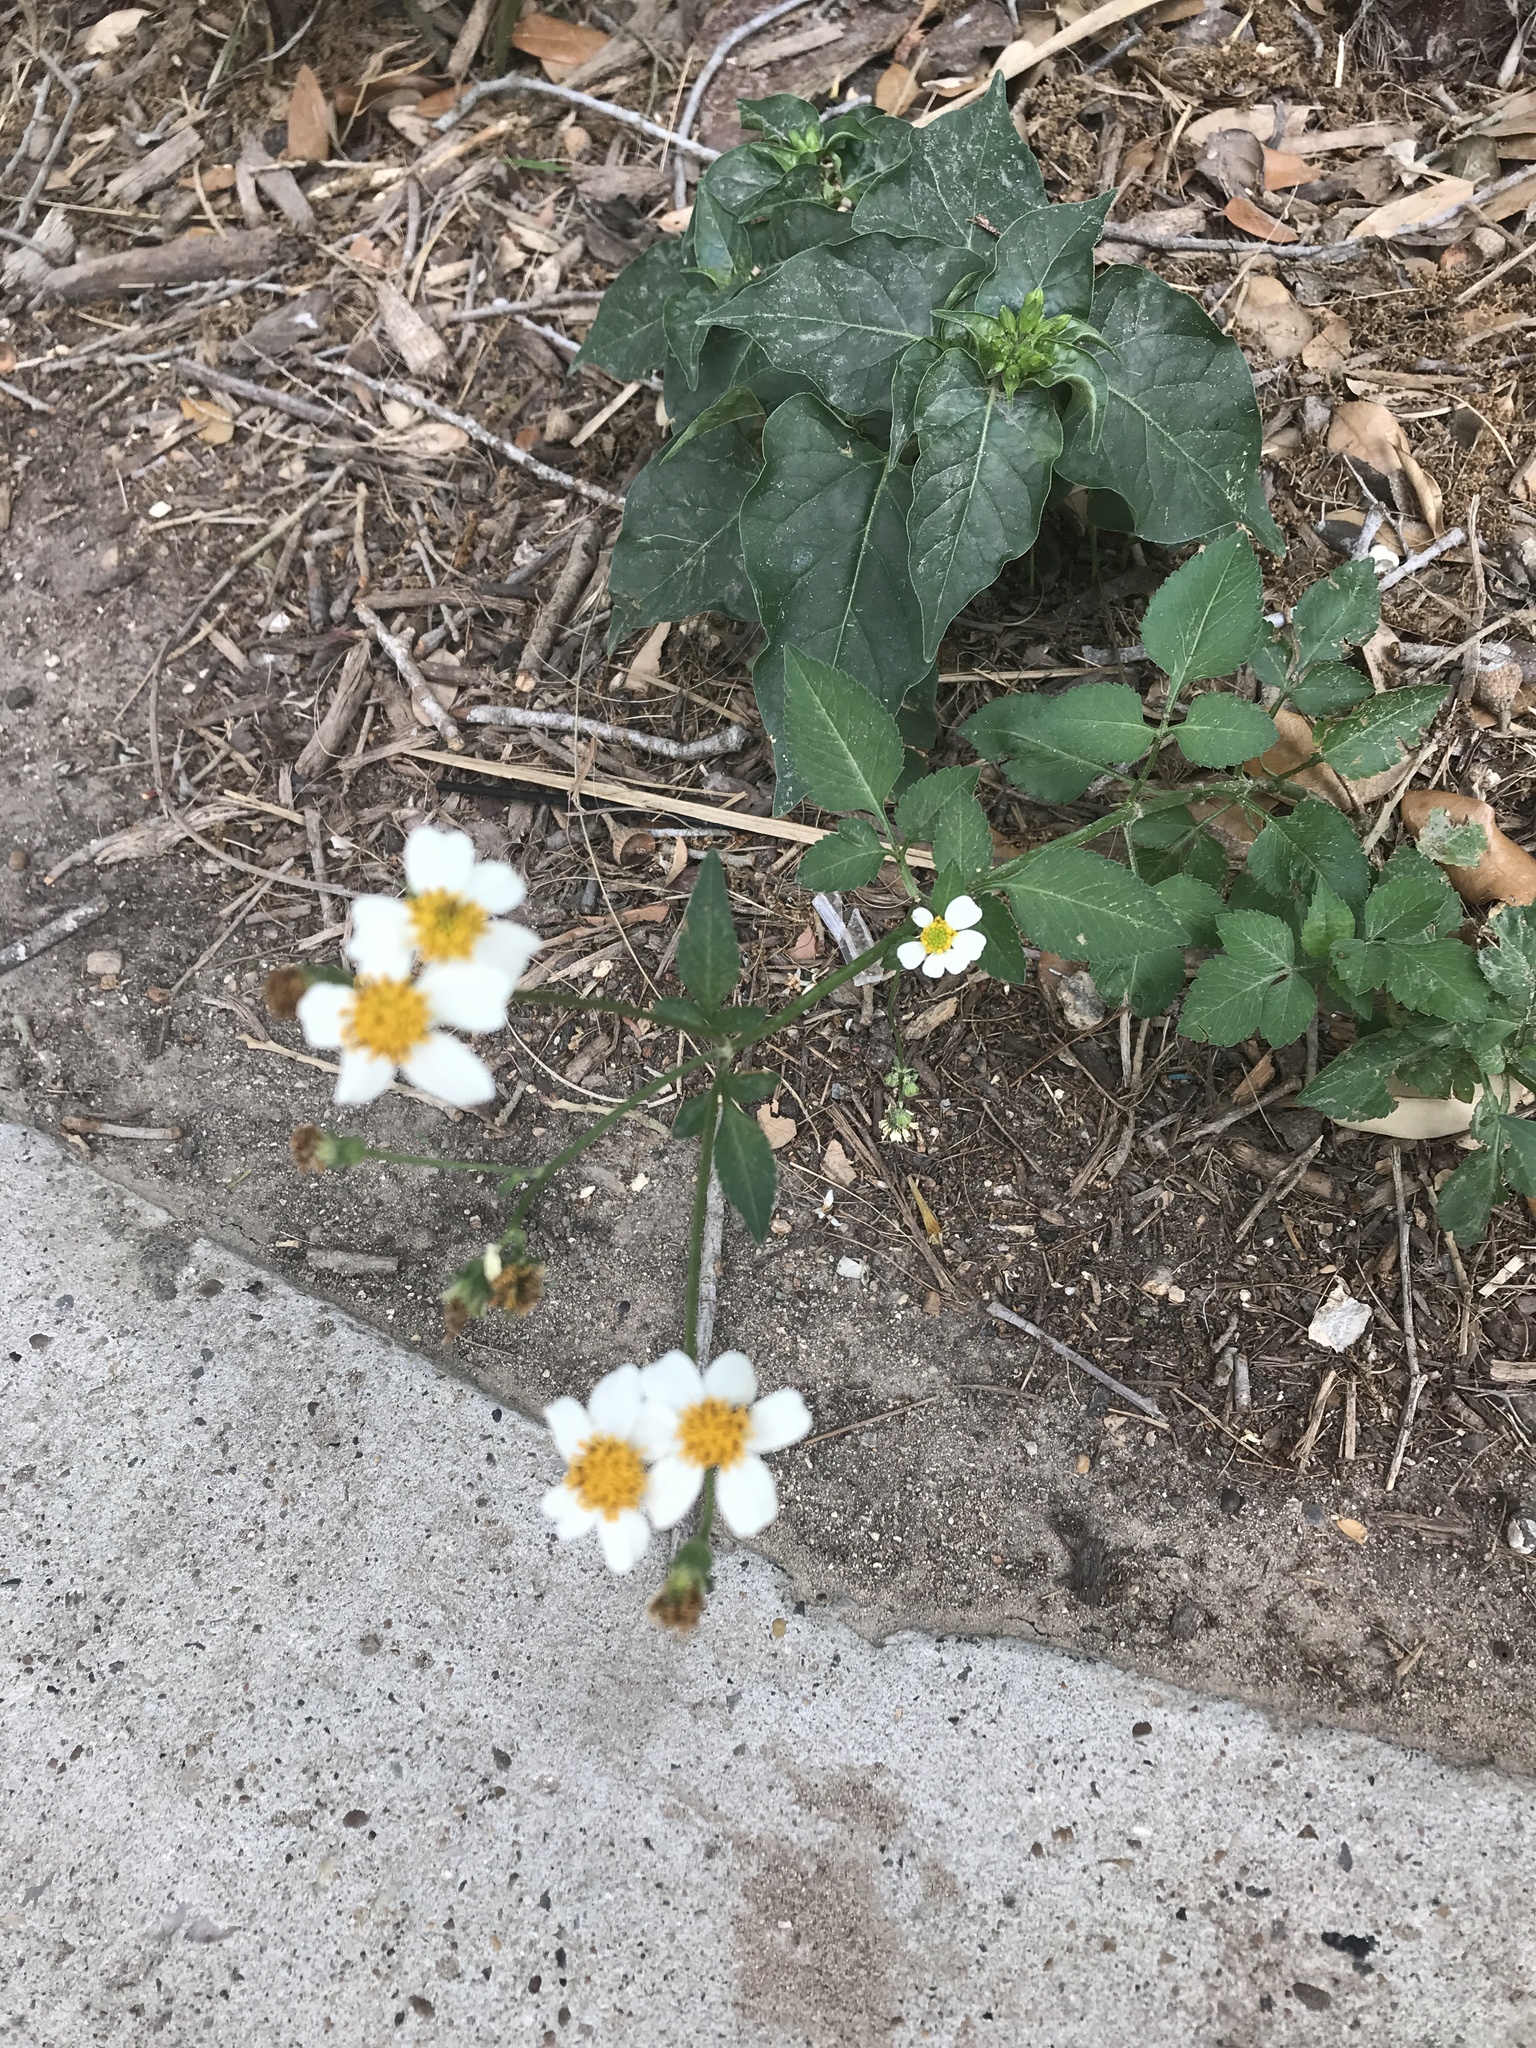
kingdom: Plantae
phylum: Tracheophyta
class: Magnoliopsida
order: Asterales
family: Asteraceae
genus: Bidens
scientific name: Bidens alba
